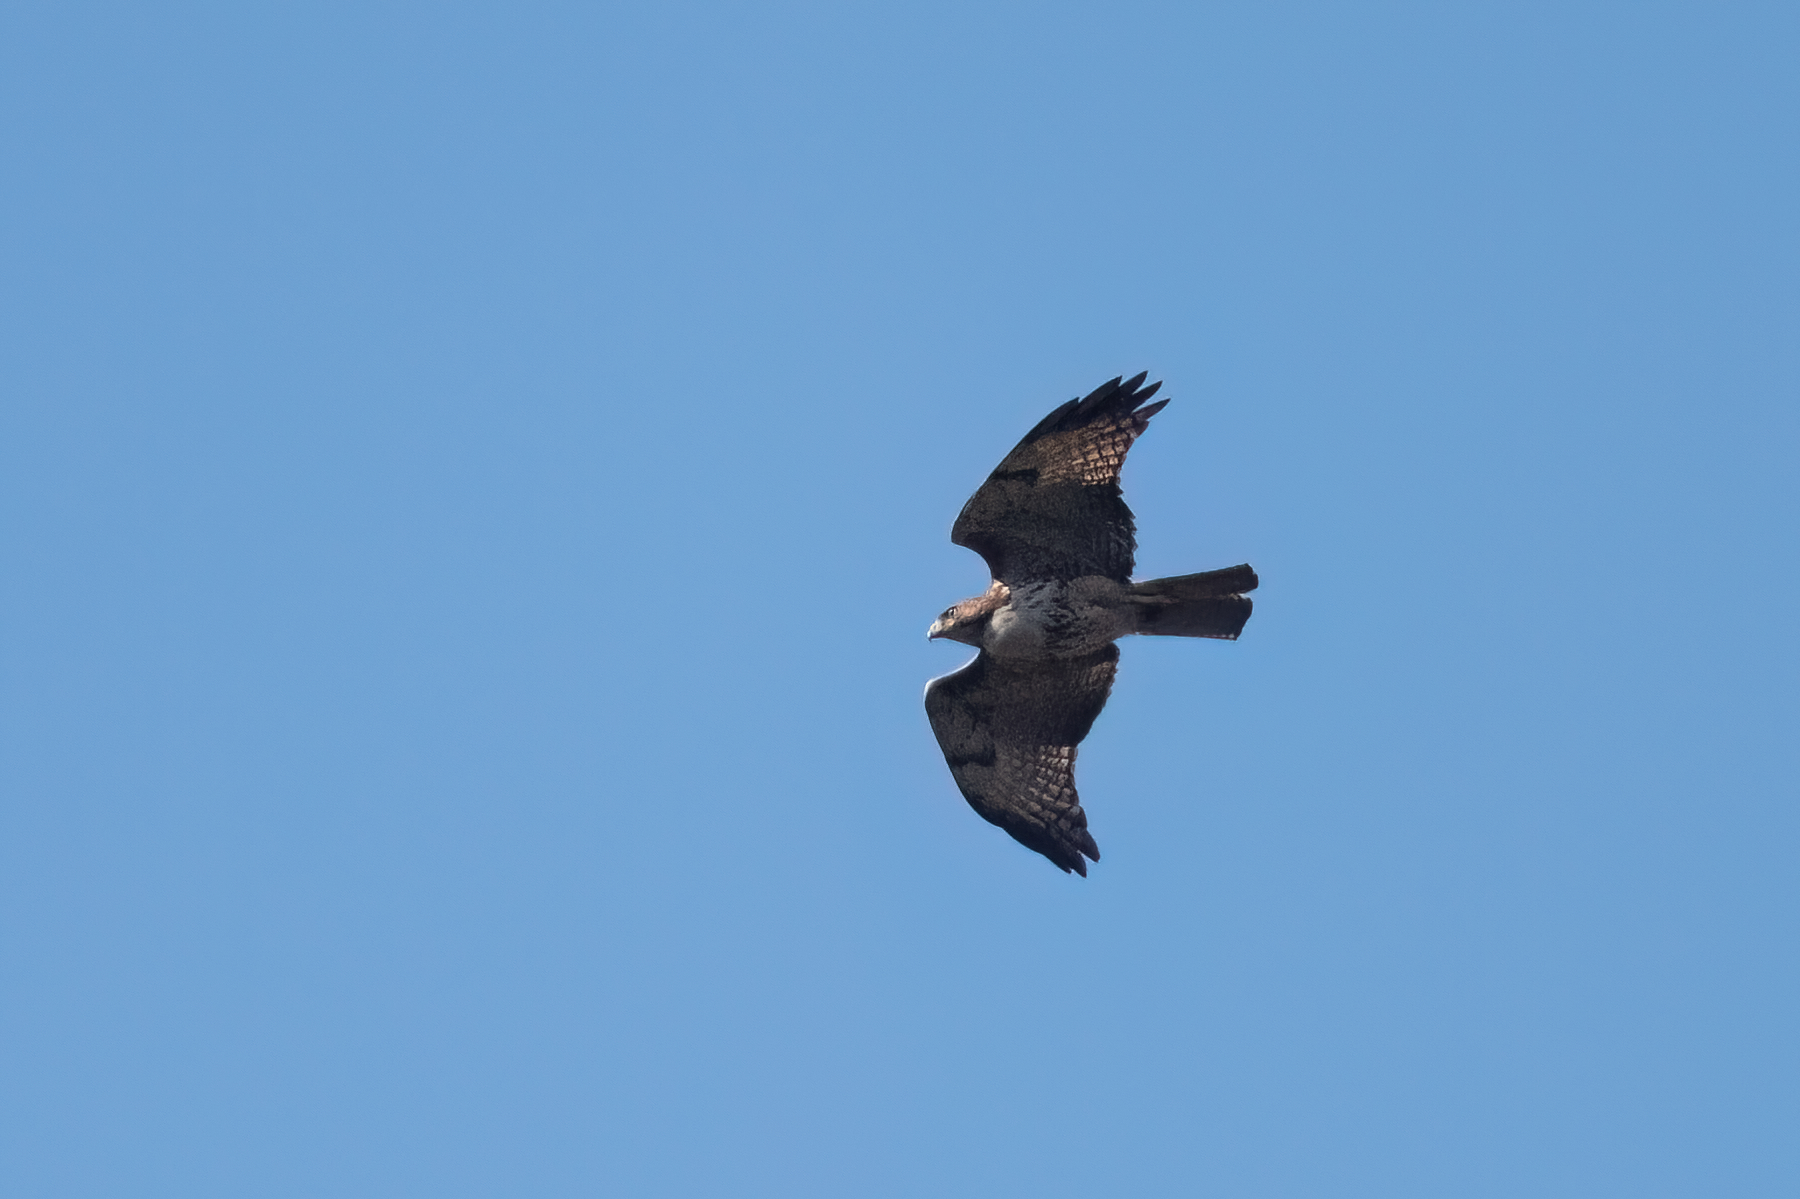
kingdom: Animalia
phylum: Chordata
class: Aves
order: Accipitriformes
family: Accipitridae
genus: Buteo
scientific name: Buteo jamaicensis
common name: Red-tailed hawk
